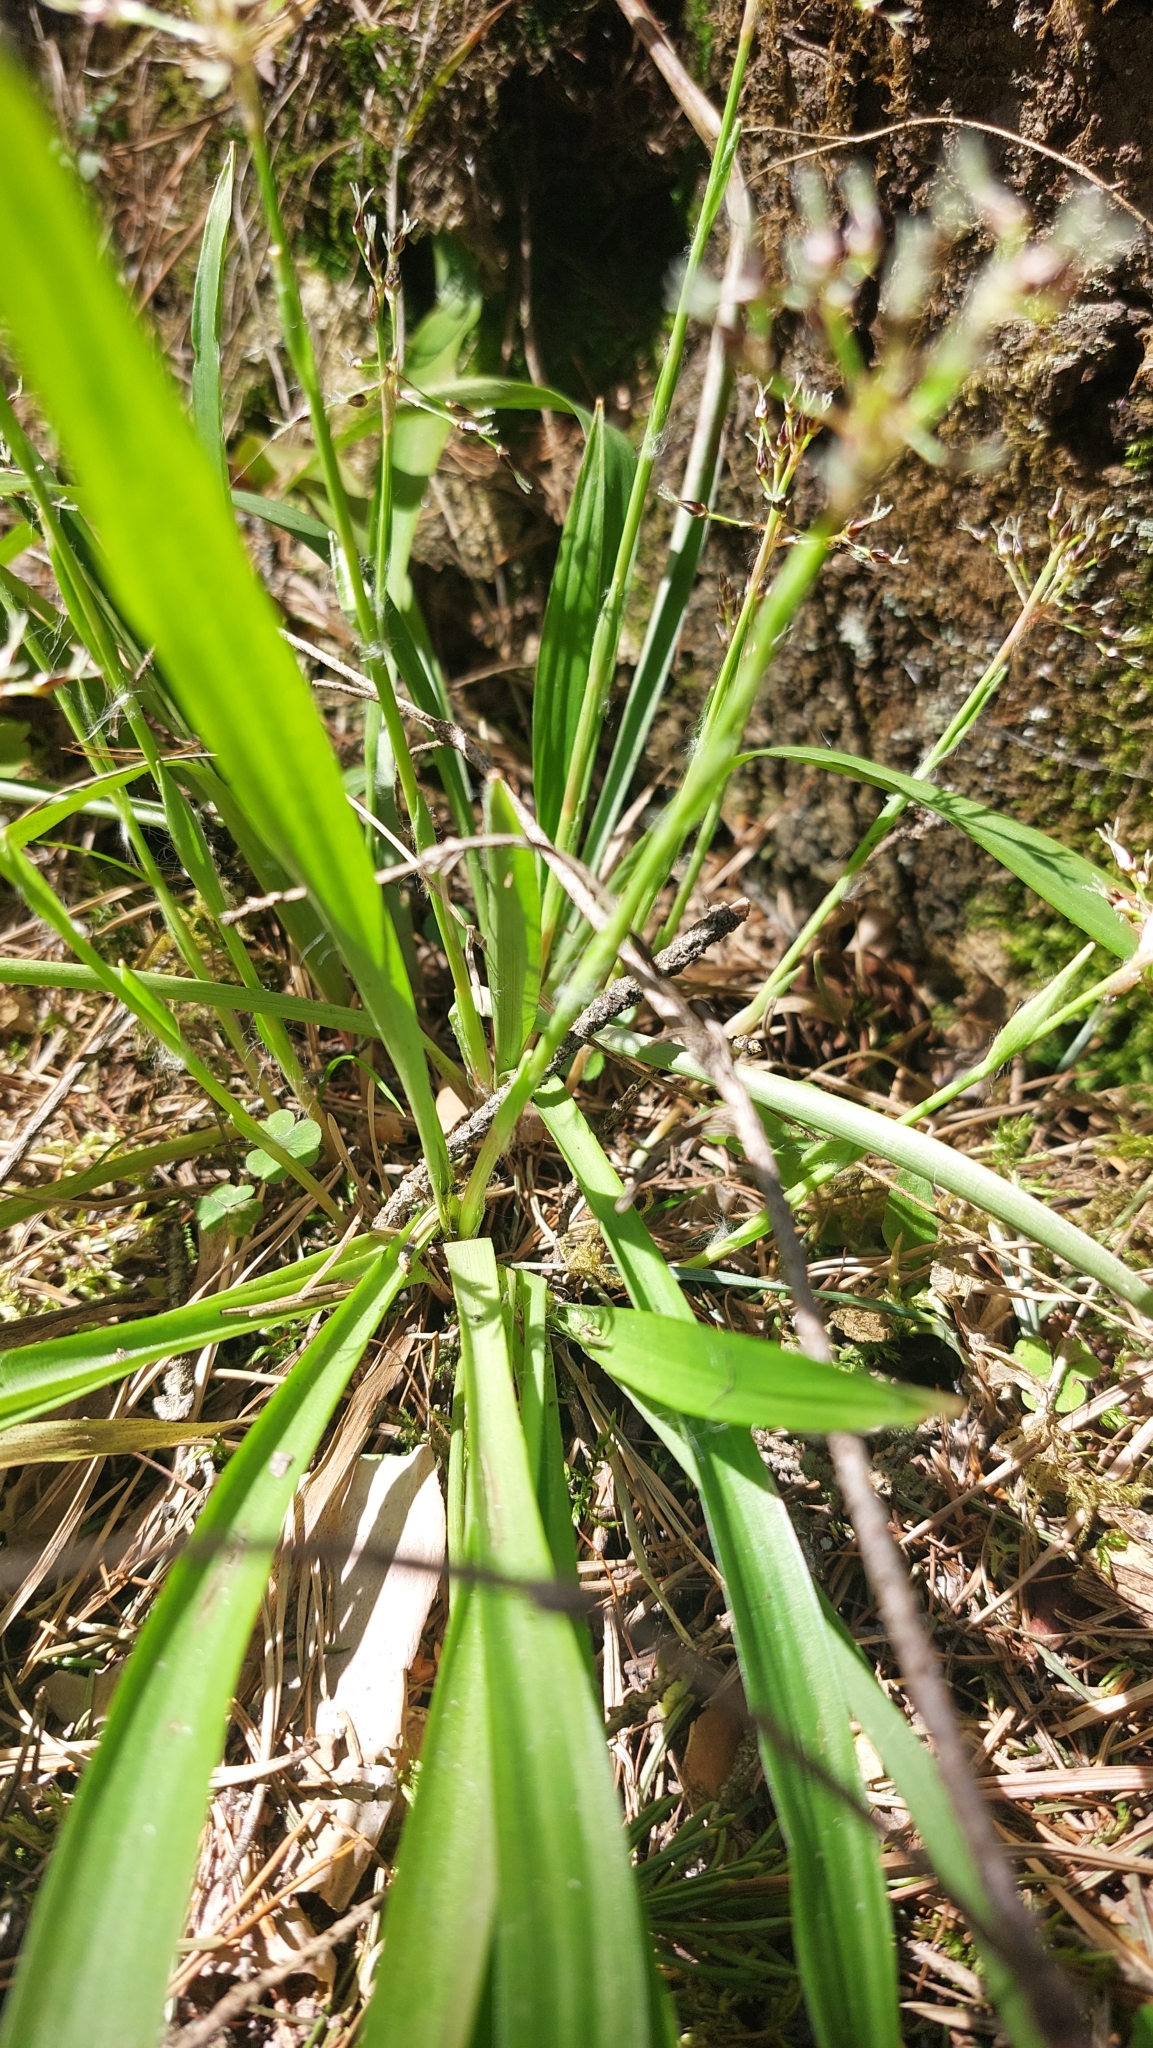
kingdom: Plantae
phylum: Tracheophyta
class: Liliopsida
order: Poales
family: Juncaceae
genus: Luzula
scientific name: Luzula pilosa
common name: Hairy wood-rush
